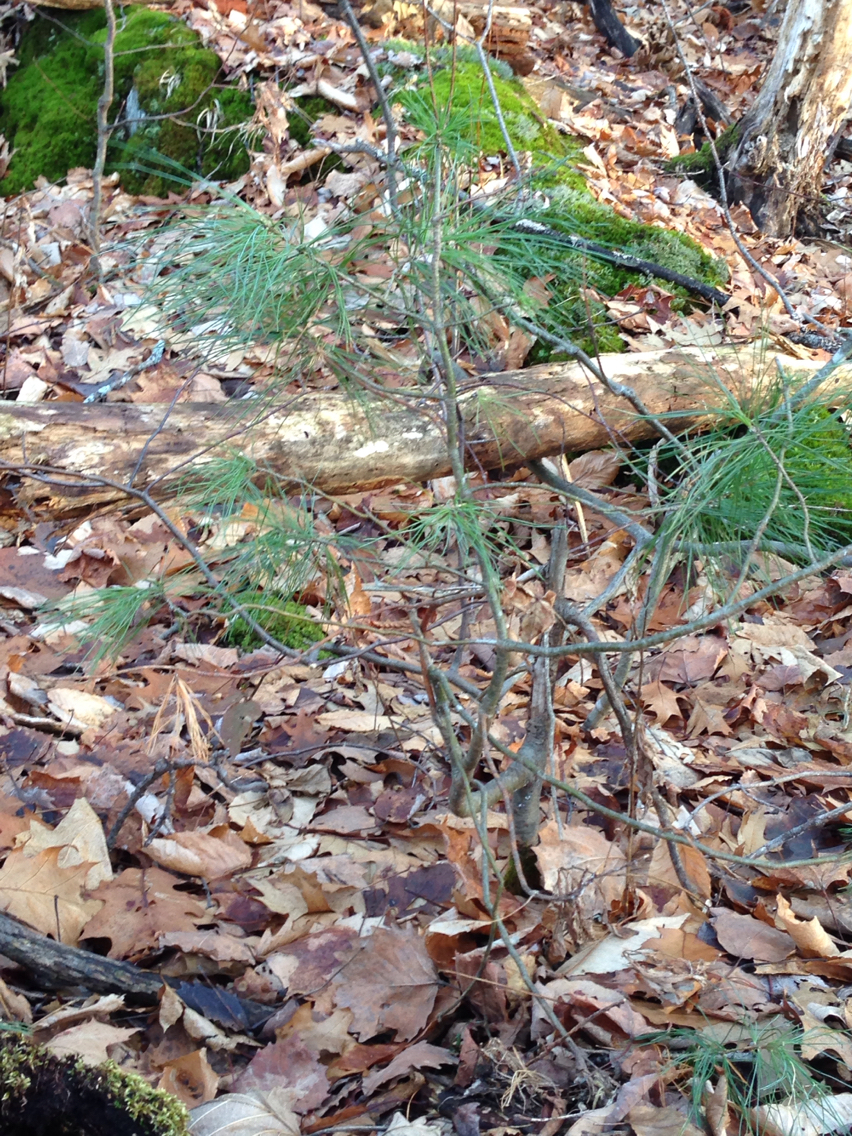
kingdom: Plantae
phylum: Tracheophyta
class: Pinopsida
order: Pinales
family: Pinaceae
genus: Pinus
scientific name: Pinus strobus
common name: Weymouth pine
